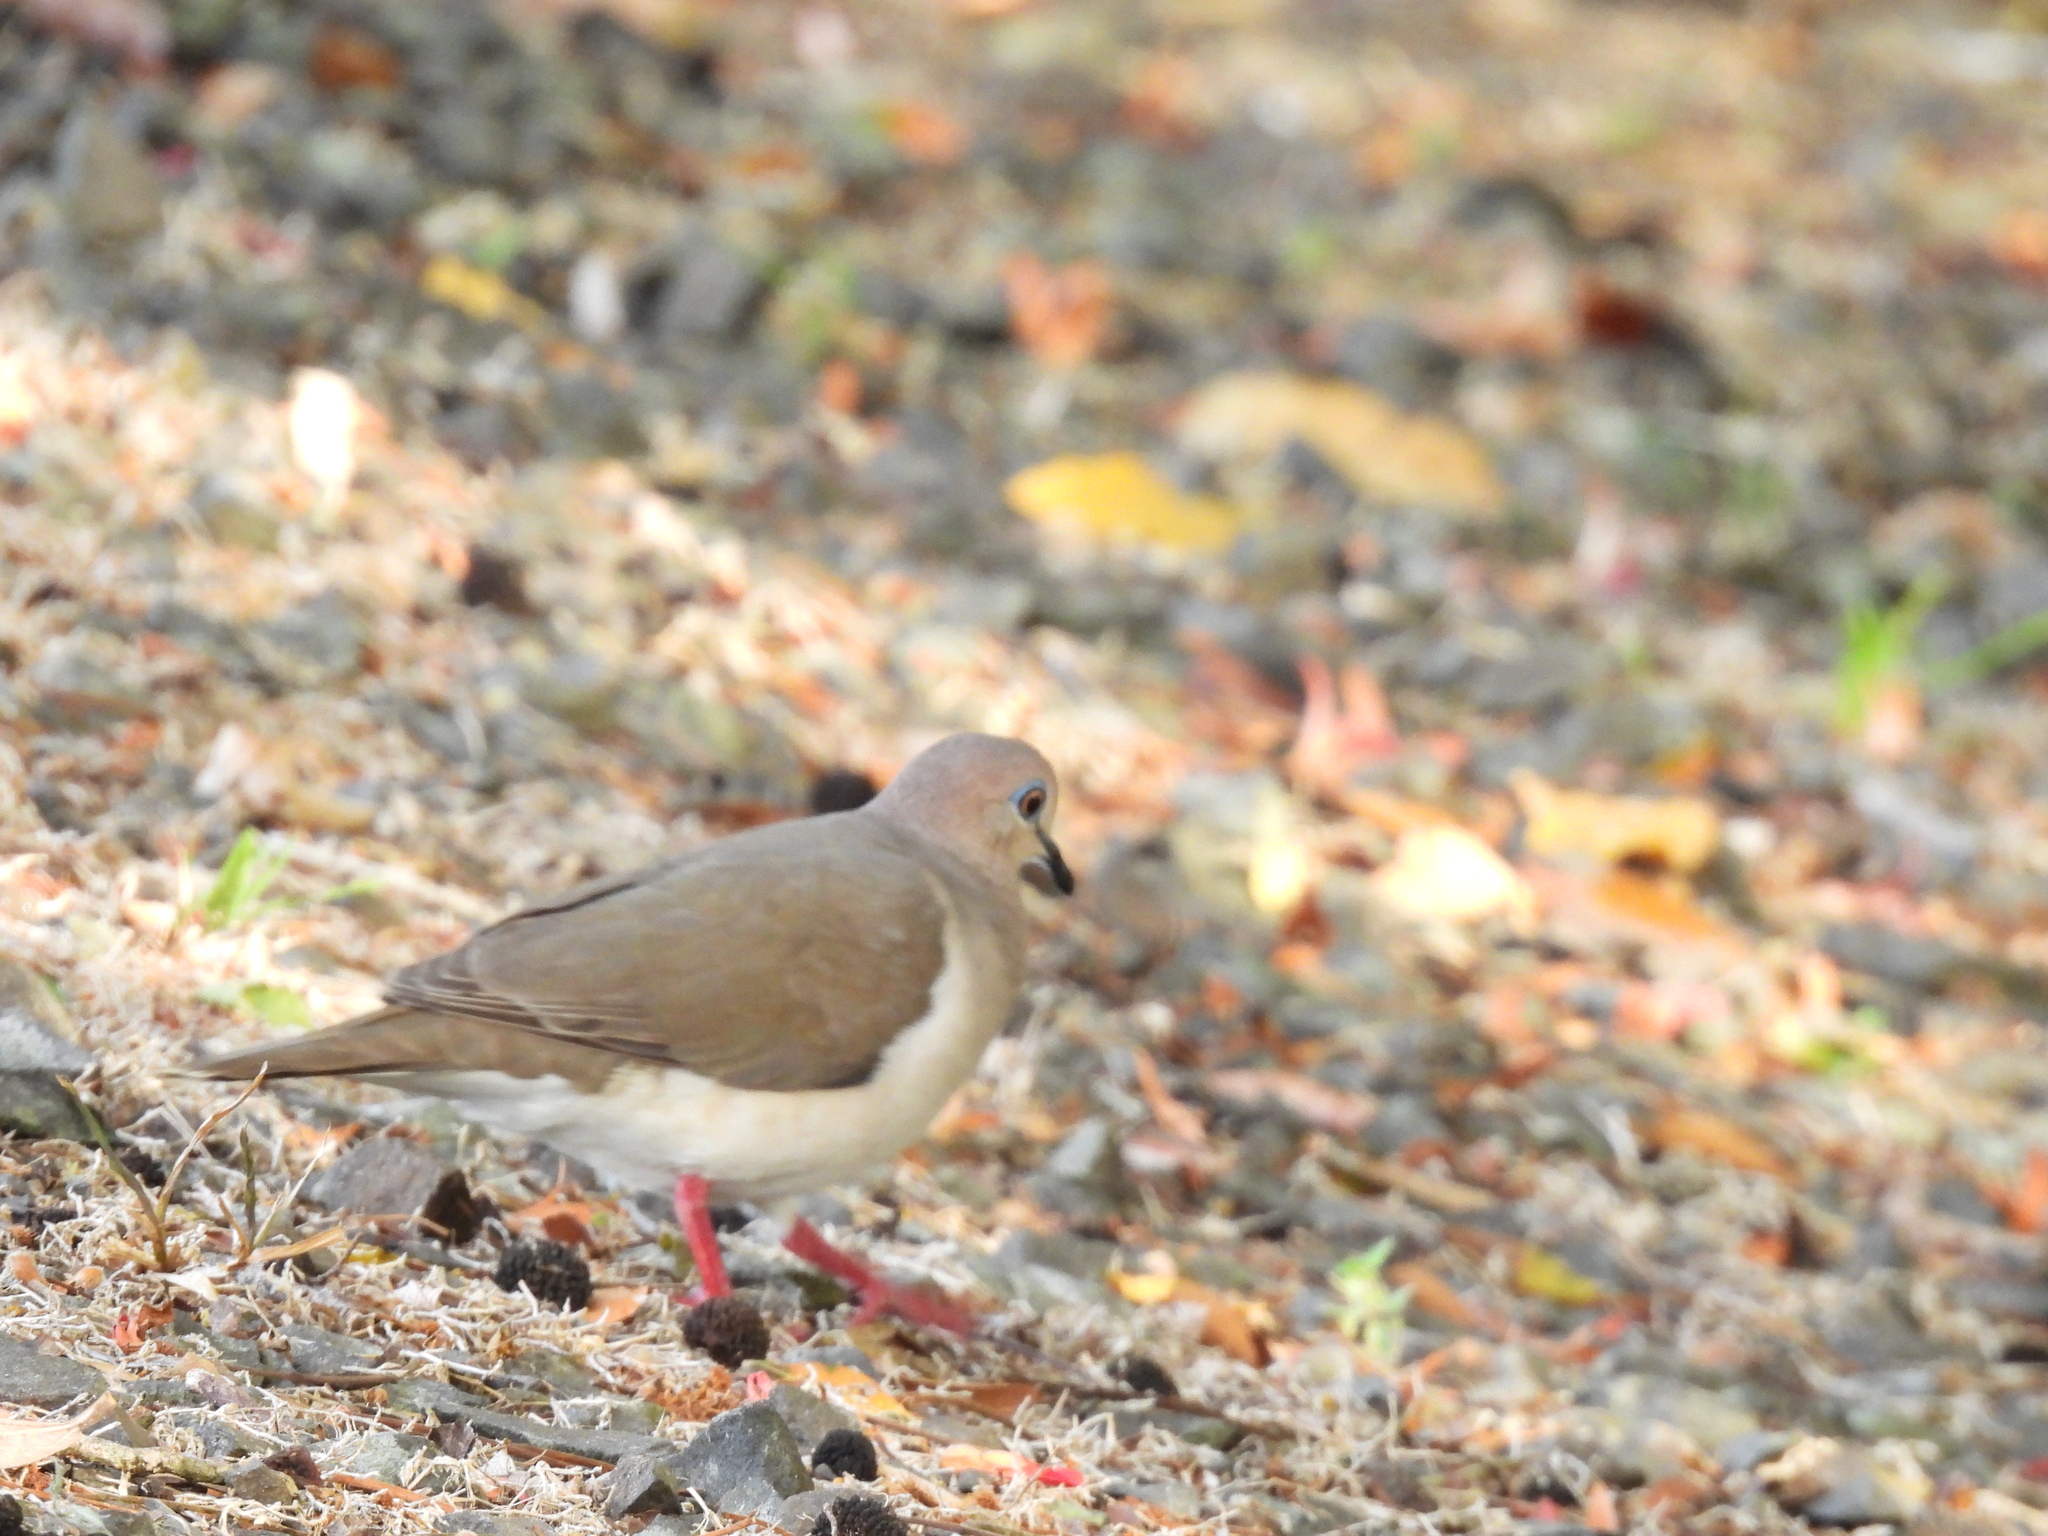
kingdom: Animalia
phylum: Chordata
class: Aves
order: Columbiformes
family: Columbidae
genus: Leptotila
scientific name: Leptotila verreauxi
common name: White-tipped dove
